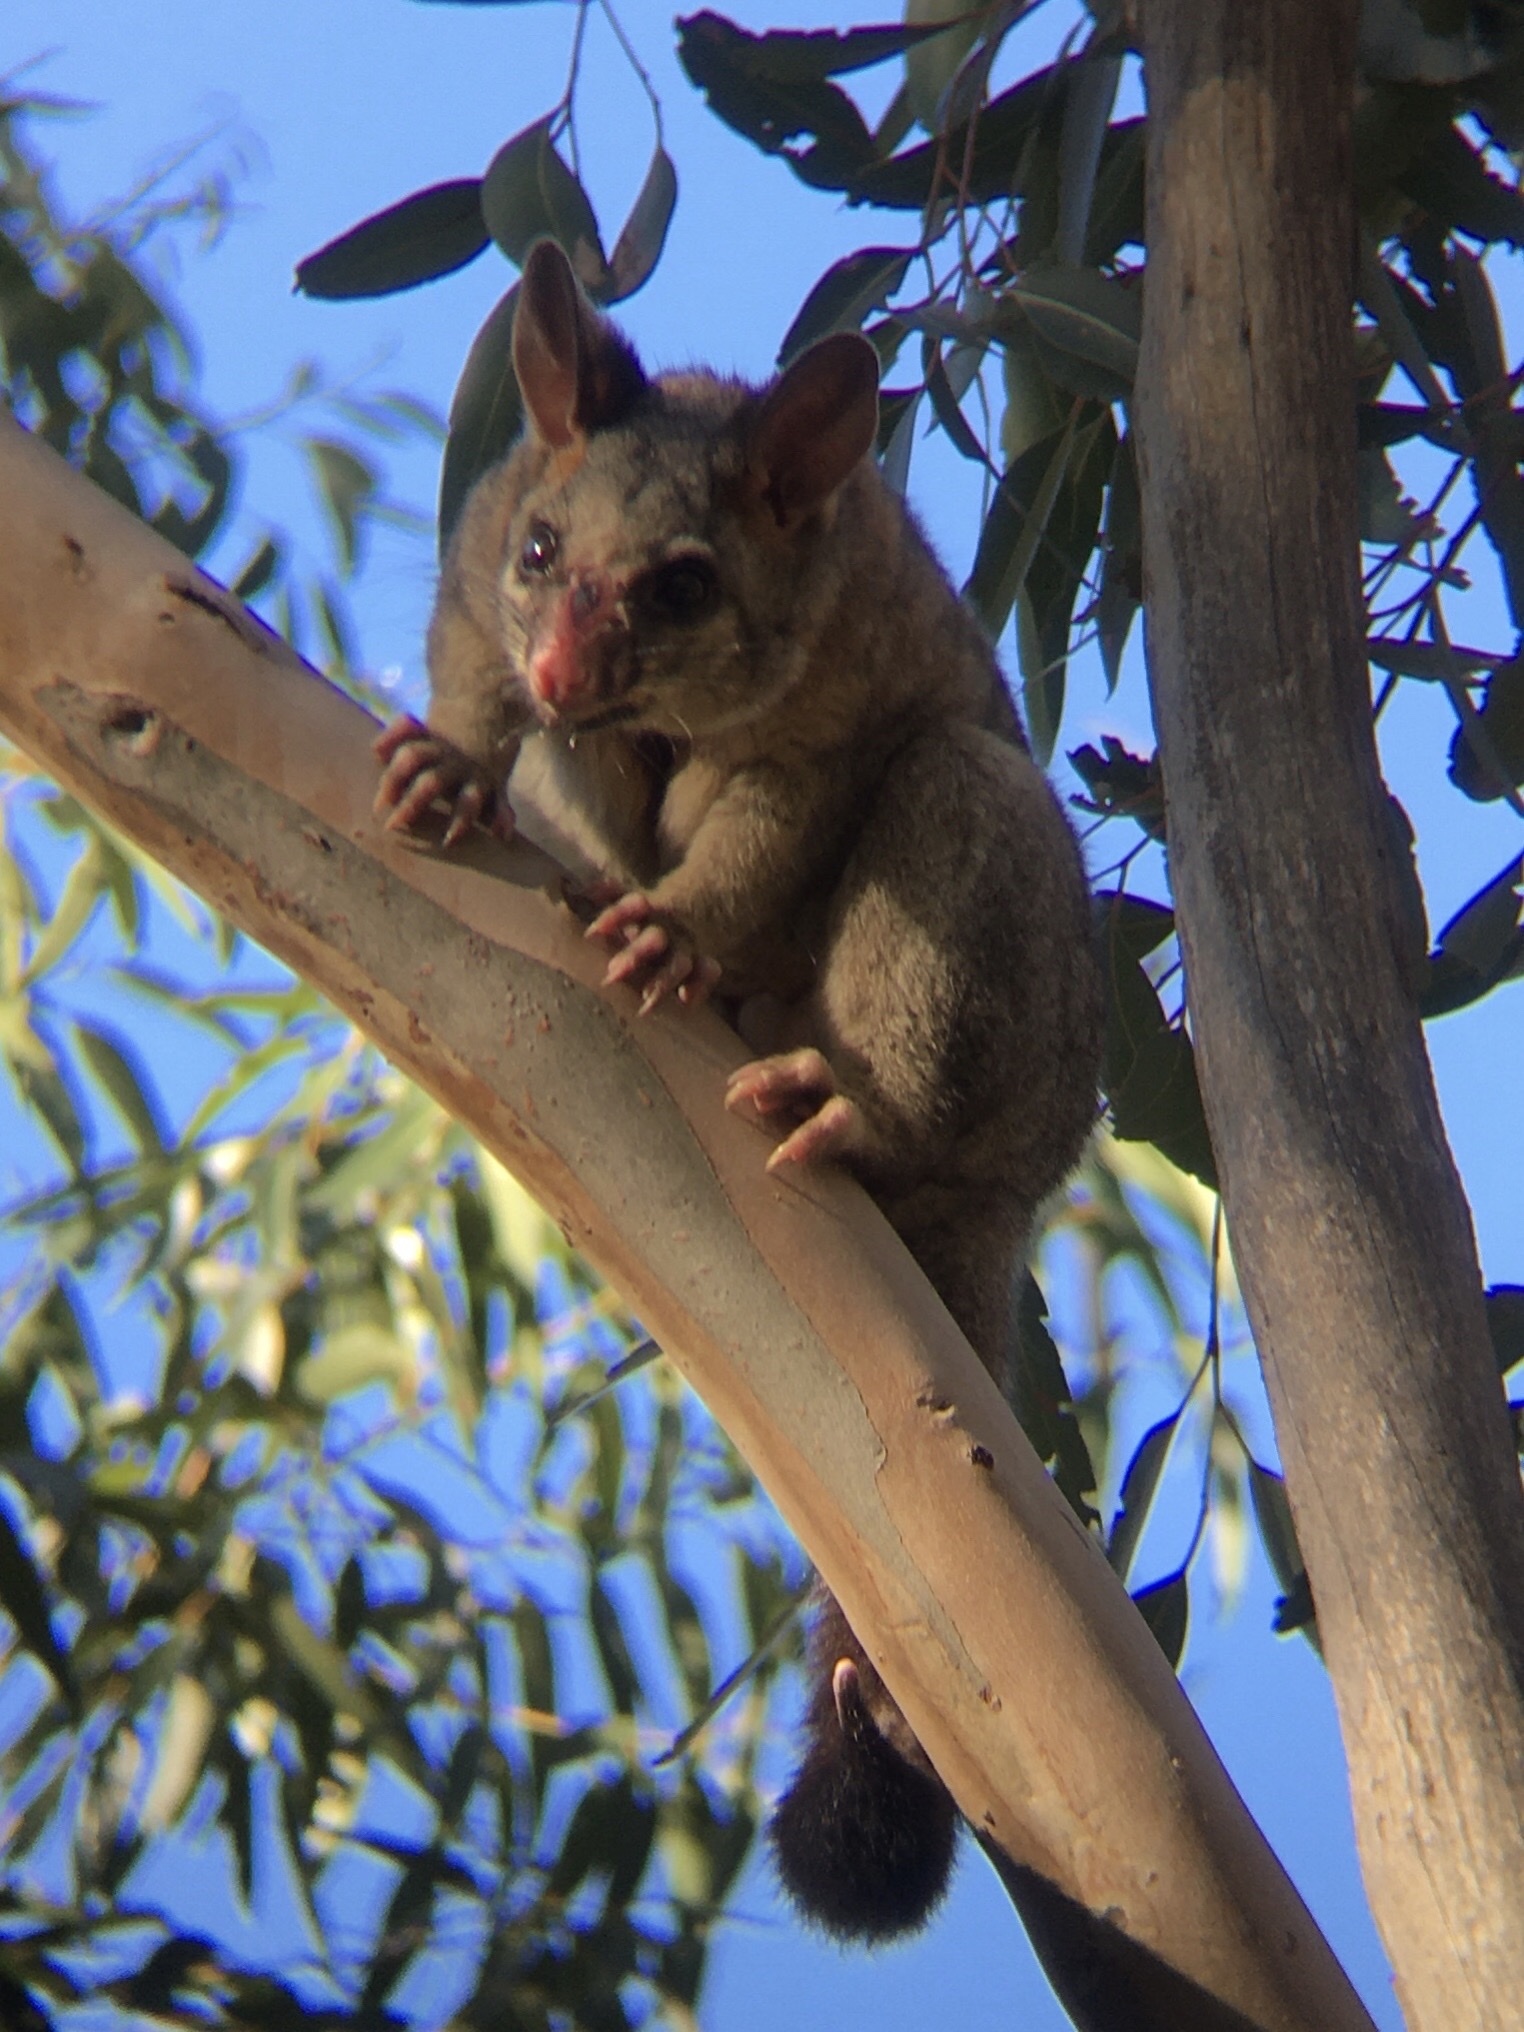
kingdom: Animalia
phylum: Chordata
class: Mammalia
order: Diprotodontia
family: Phalangeridae
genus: Trichosurus
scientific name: Trichosurus vulpecula
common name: Common brushtail
